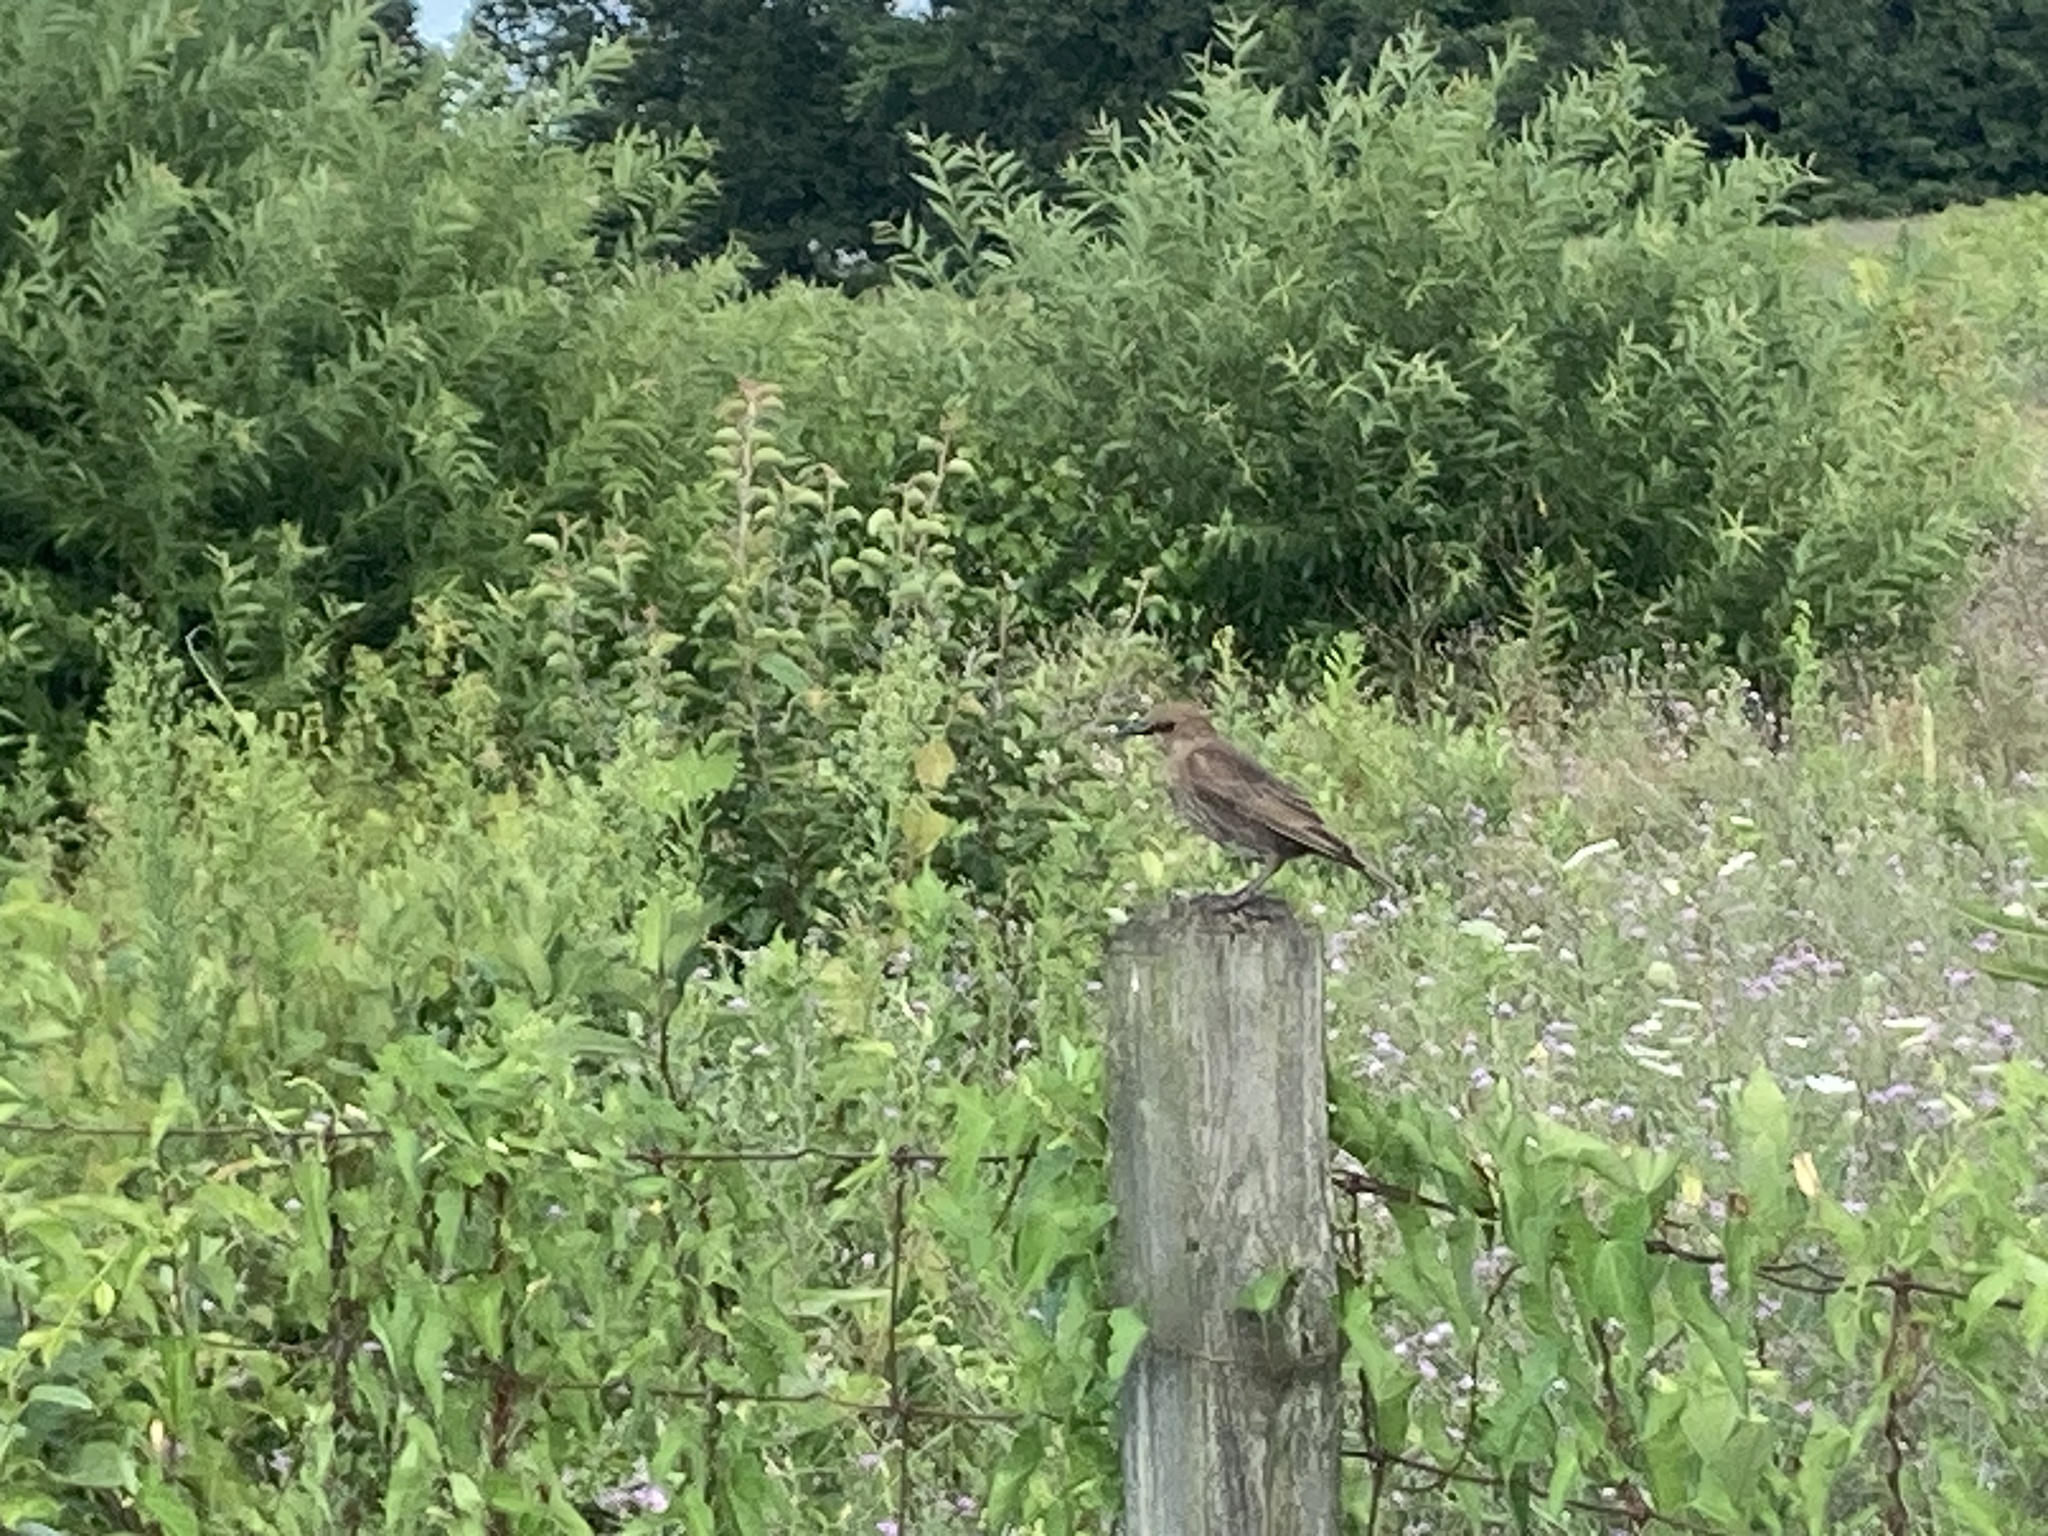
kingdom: Animalia
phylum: Chordata
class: Aves
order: Passeriformes
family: Sturnidae
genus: Sturnus
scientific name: Sturnus vulgaris
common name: Common starling
